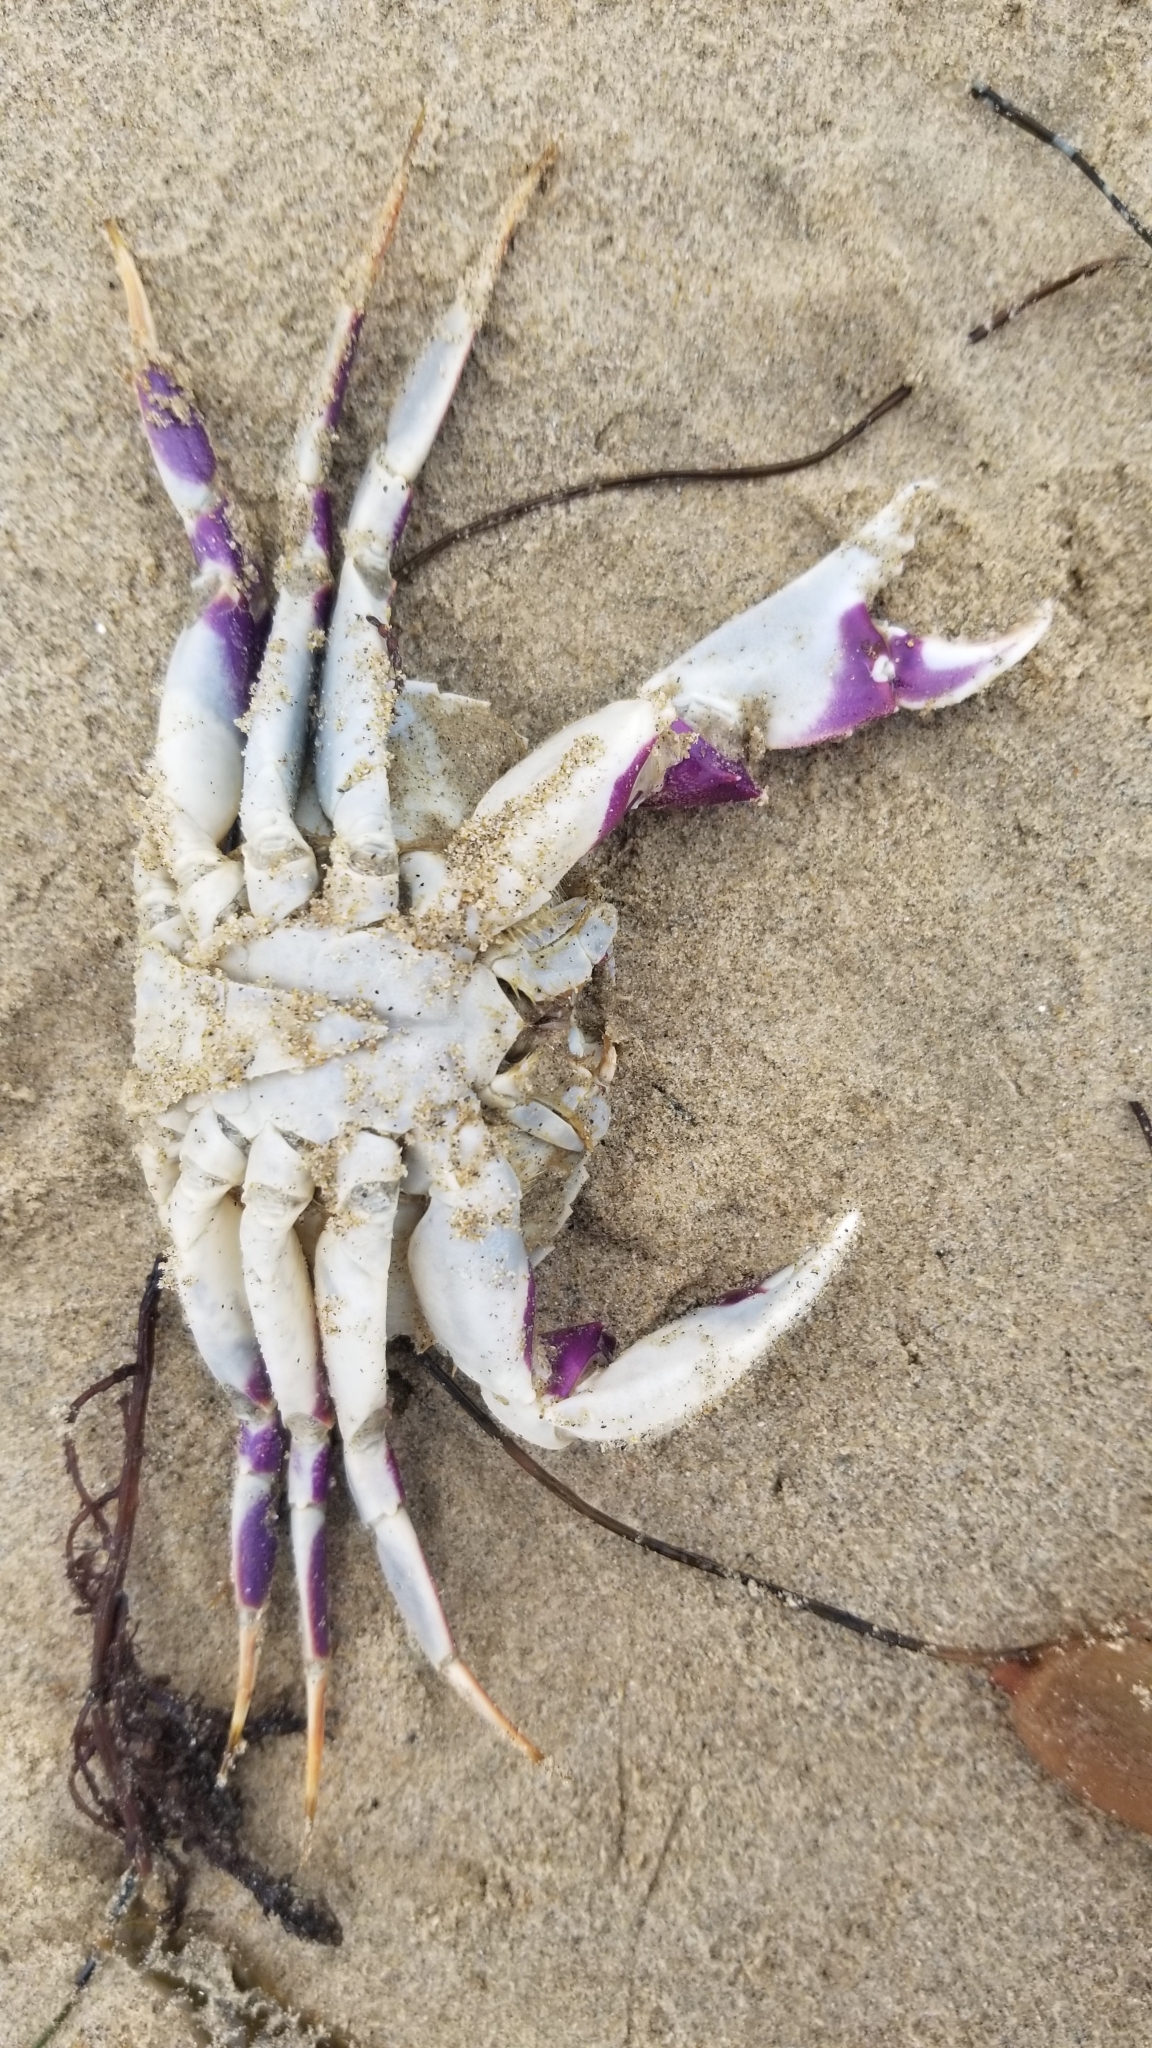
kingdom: Animalia
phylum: Arthropoda
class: Malacostraca
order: Decapoda
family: Cancridae
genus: Metacarcinus
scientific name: Metacarcinus gracilis
